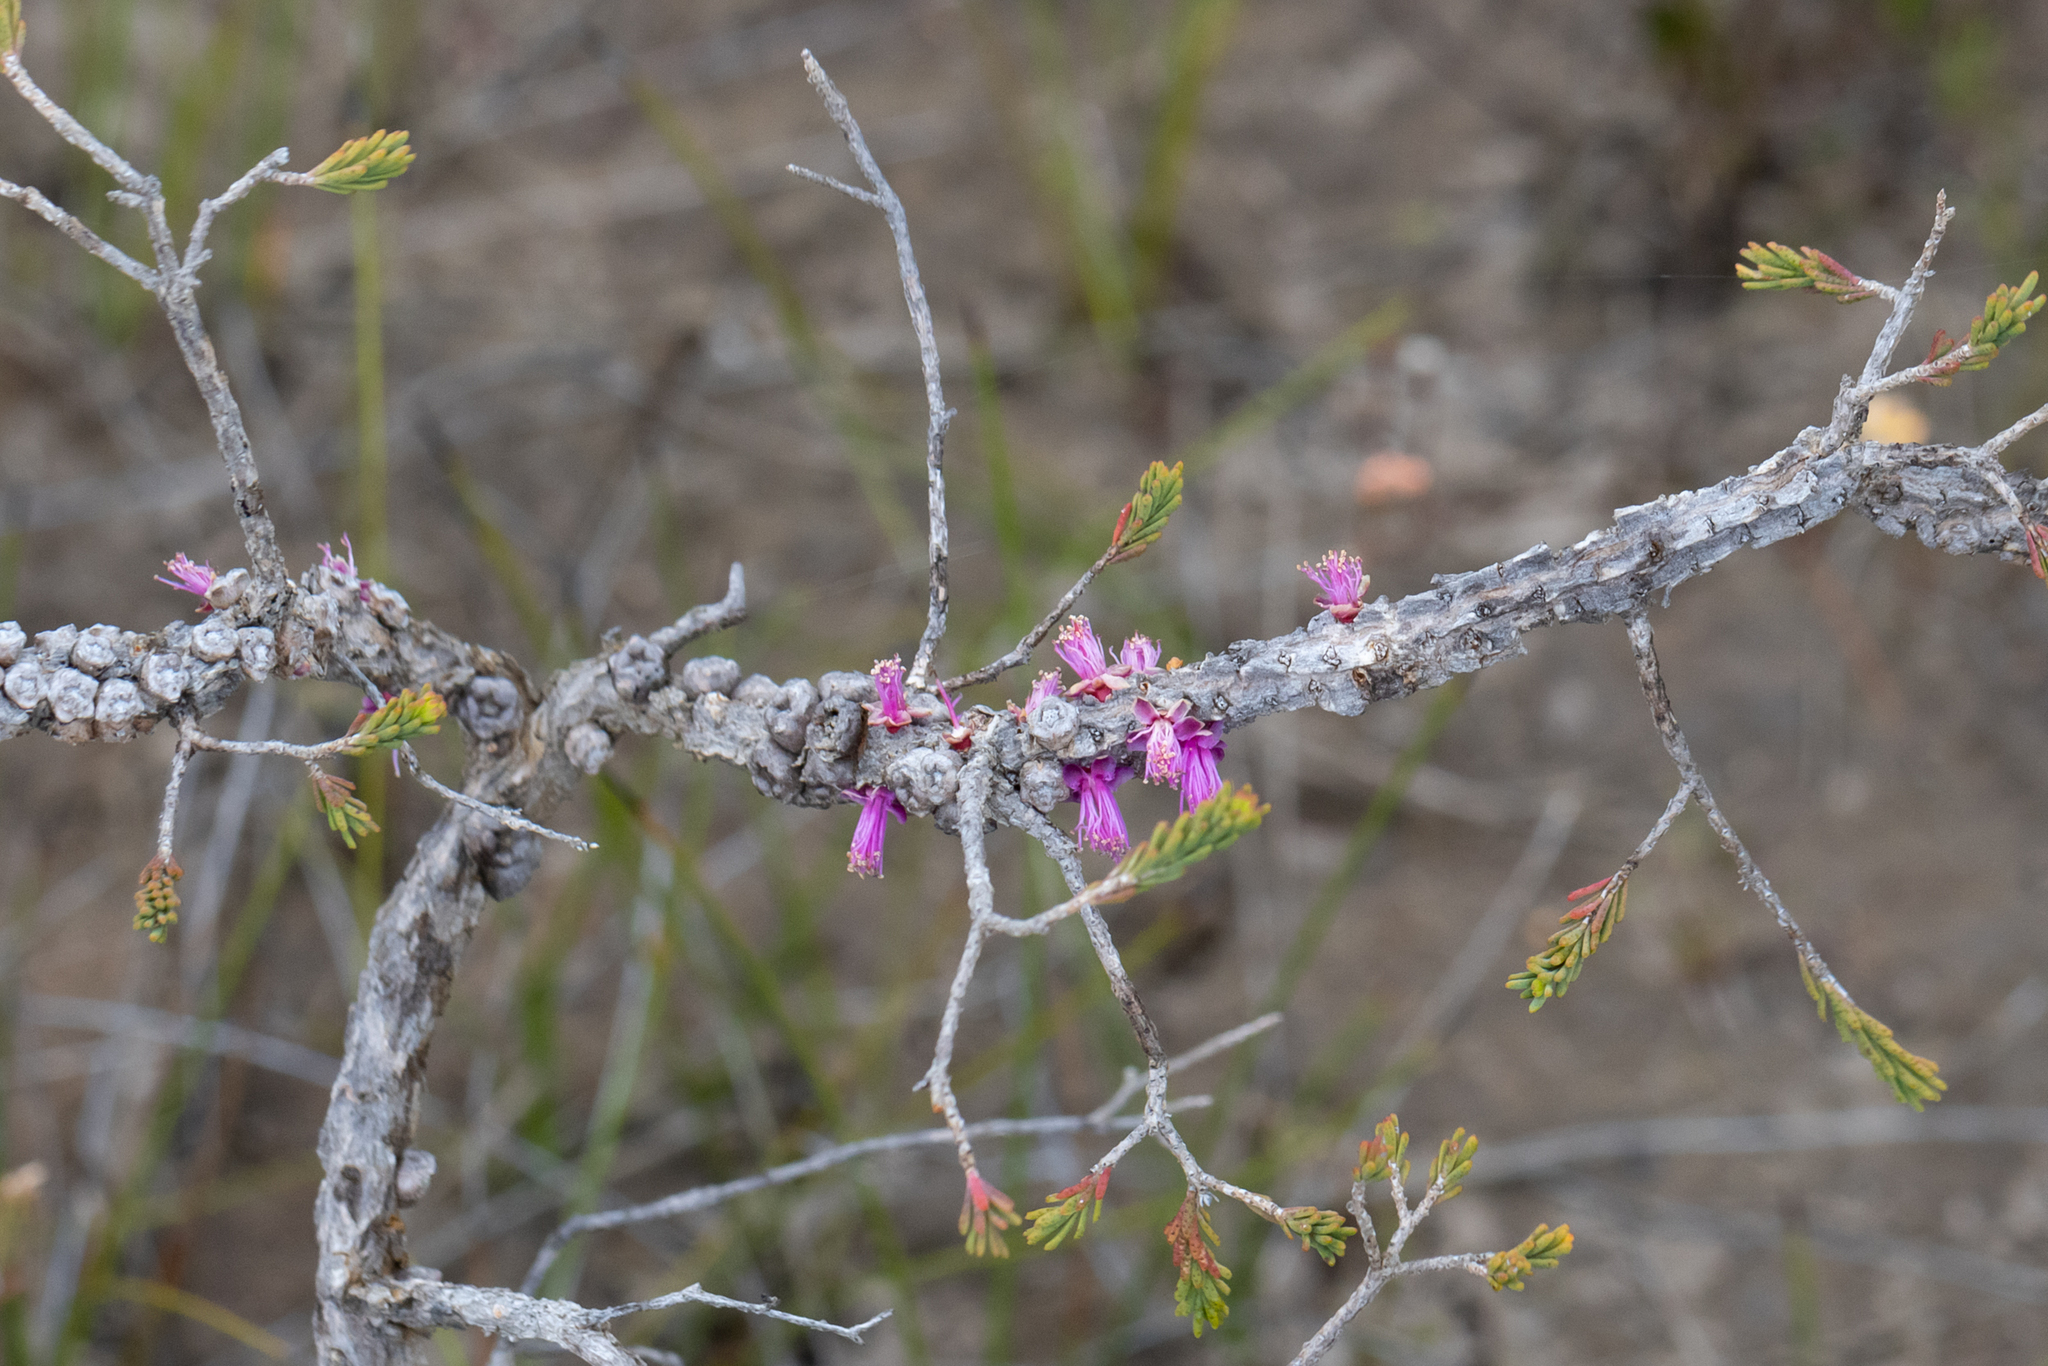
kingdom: Plantae
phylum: Tracheophyta
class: Magnoliopsida
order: Myrtales
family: Myrtaceae
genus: Melaleuca
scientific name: Melaleuca suberosa
